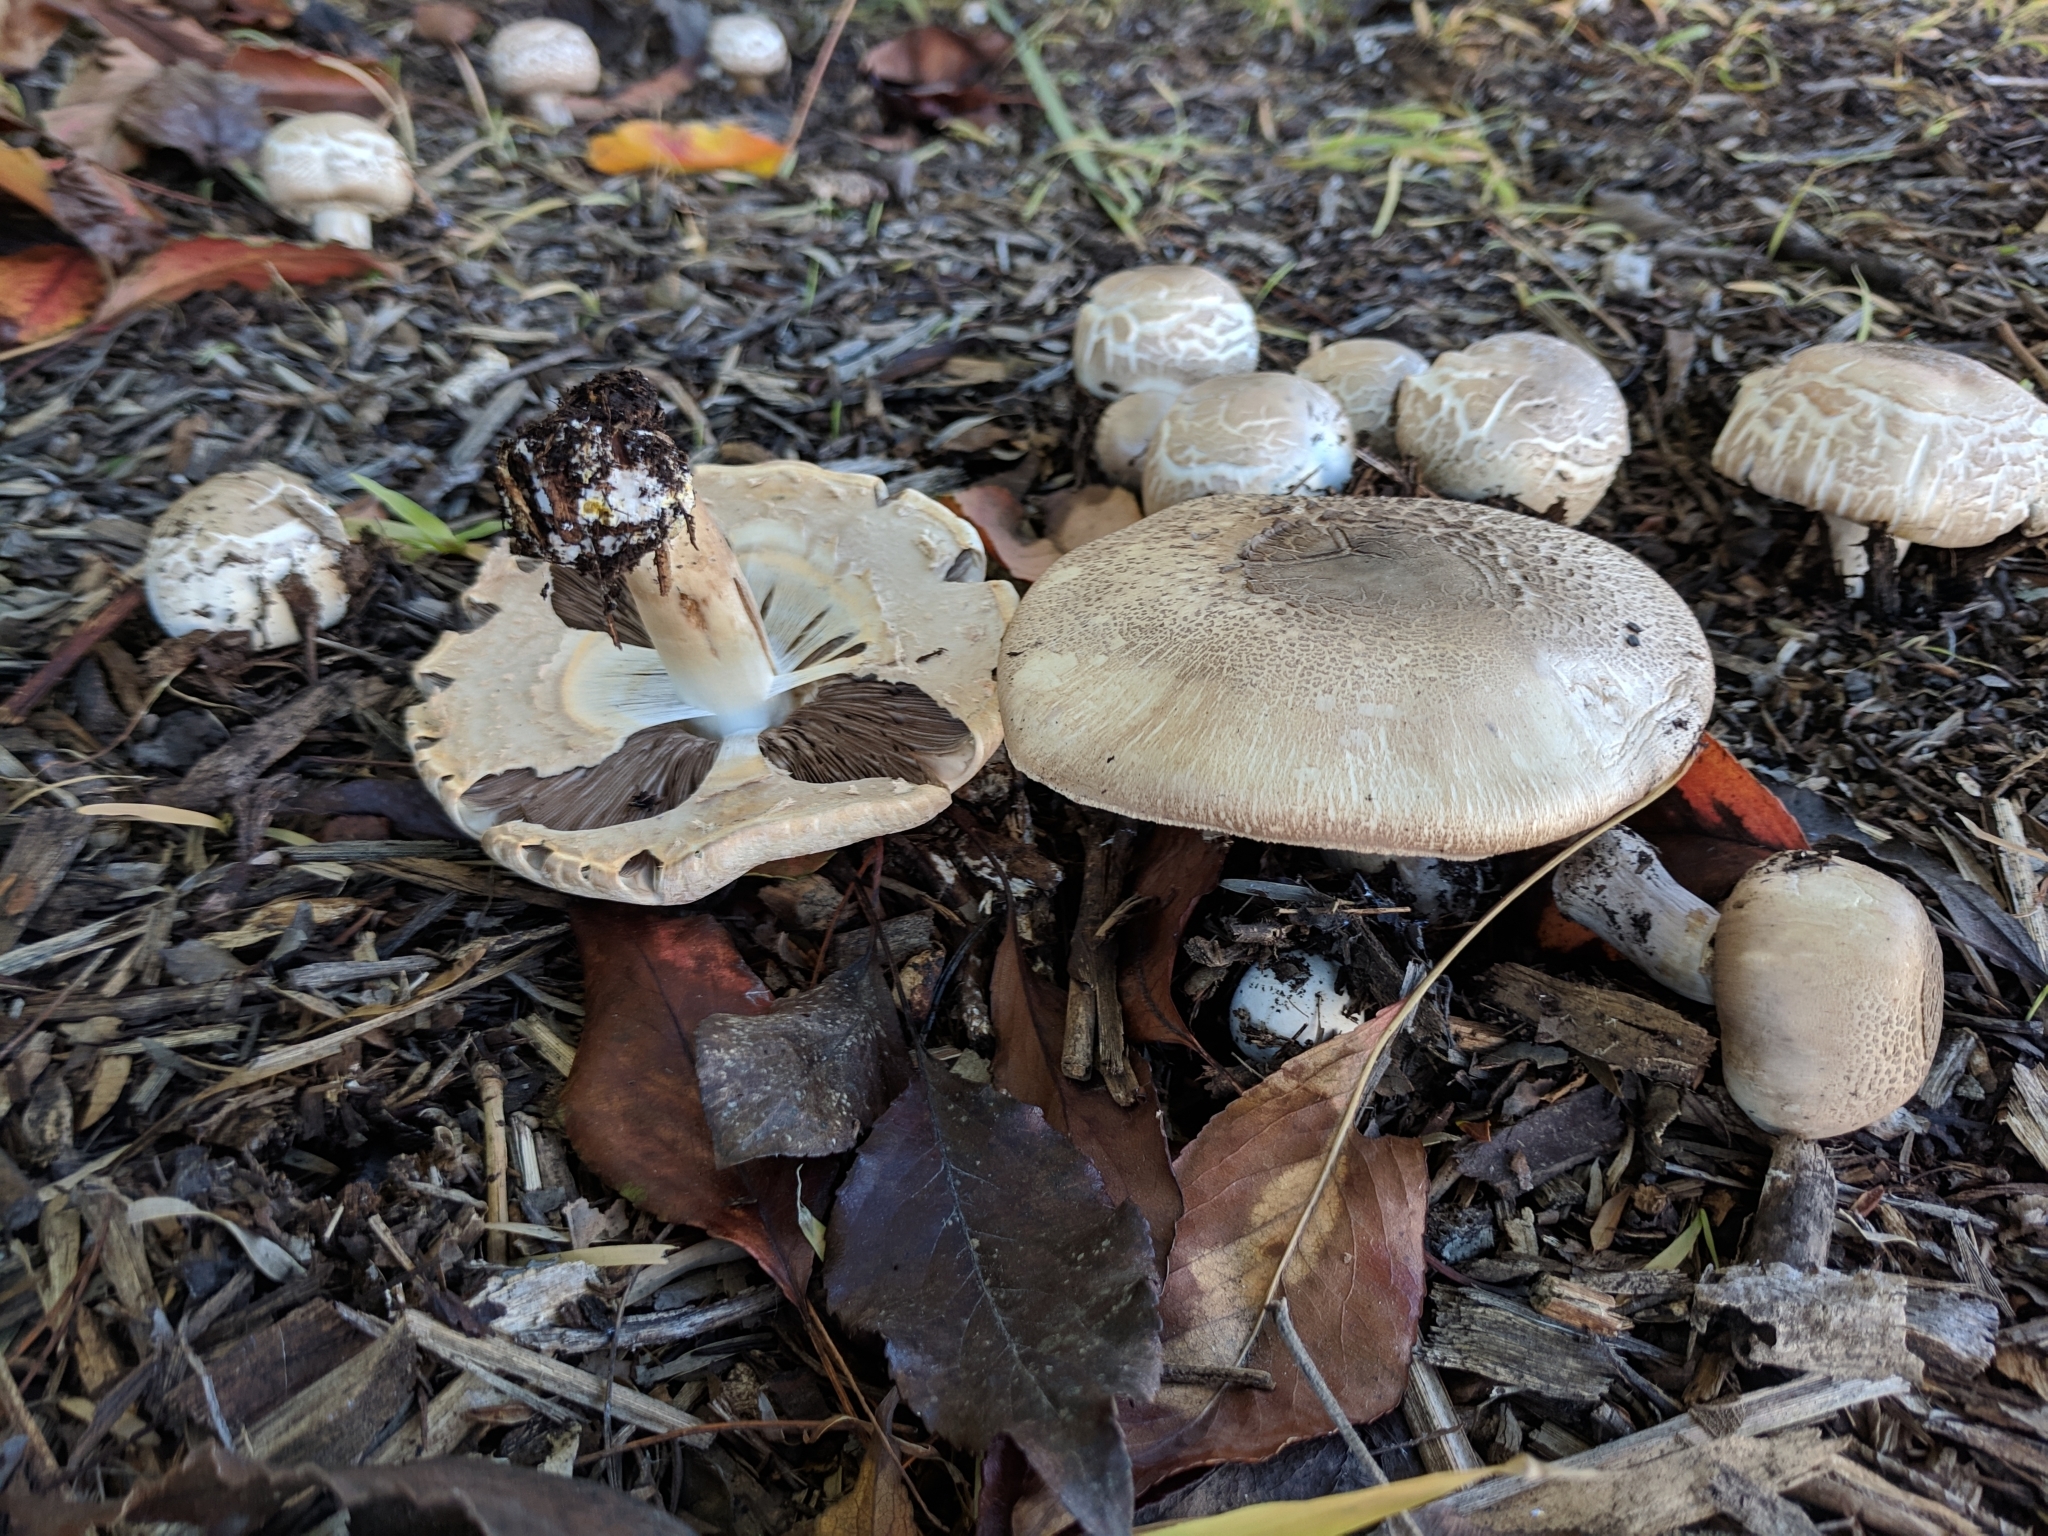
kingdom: Fungi
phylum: Basidiomycota
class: Agaricomycetes
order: Agaricales
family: Agaricaceae
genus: Agaricus
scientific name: Agaricus xanthodermus
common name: Yellow stainer
